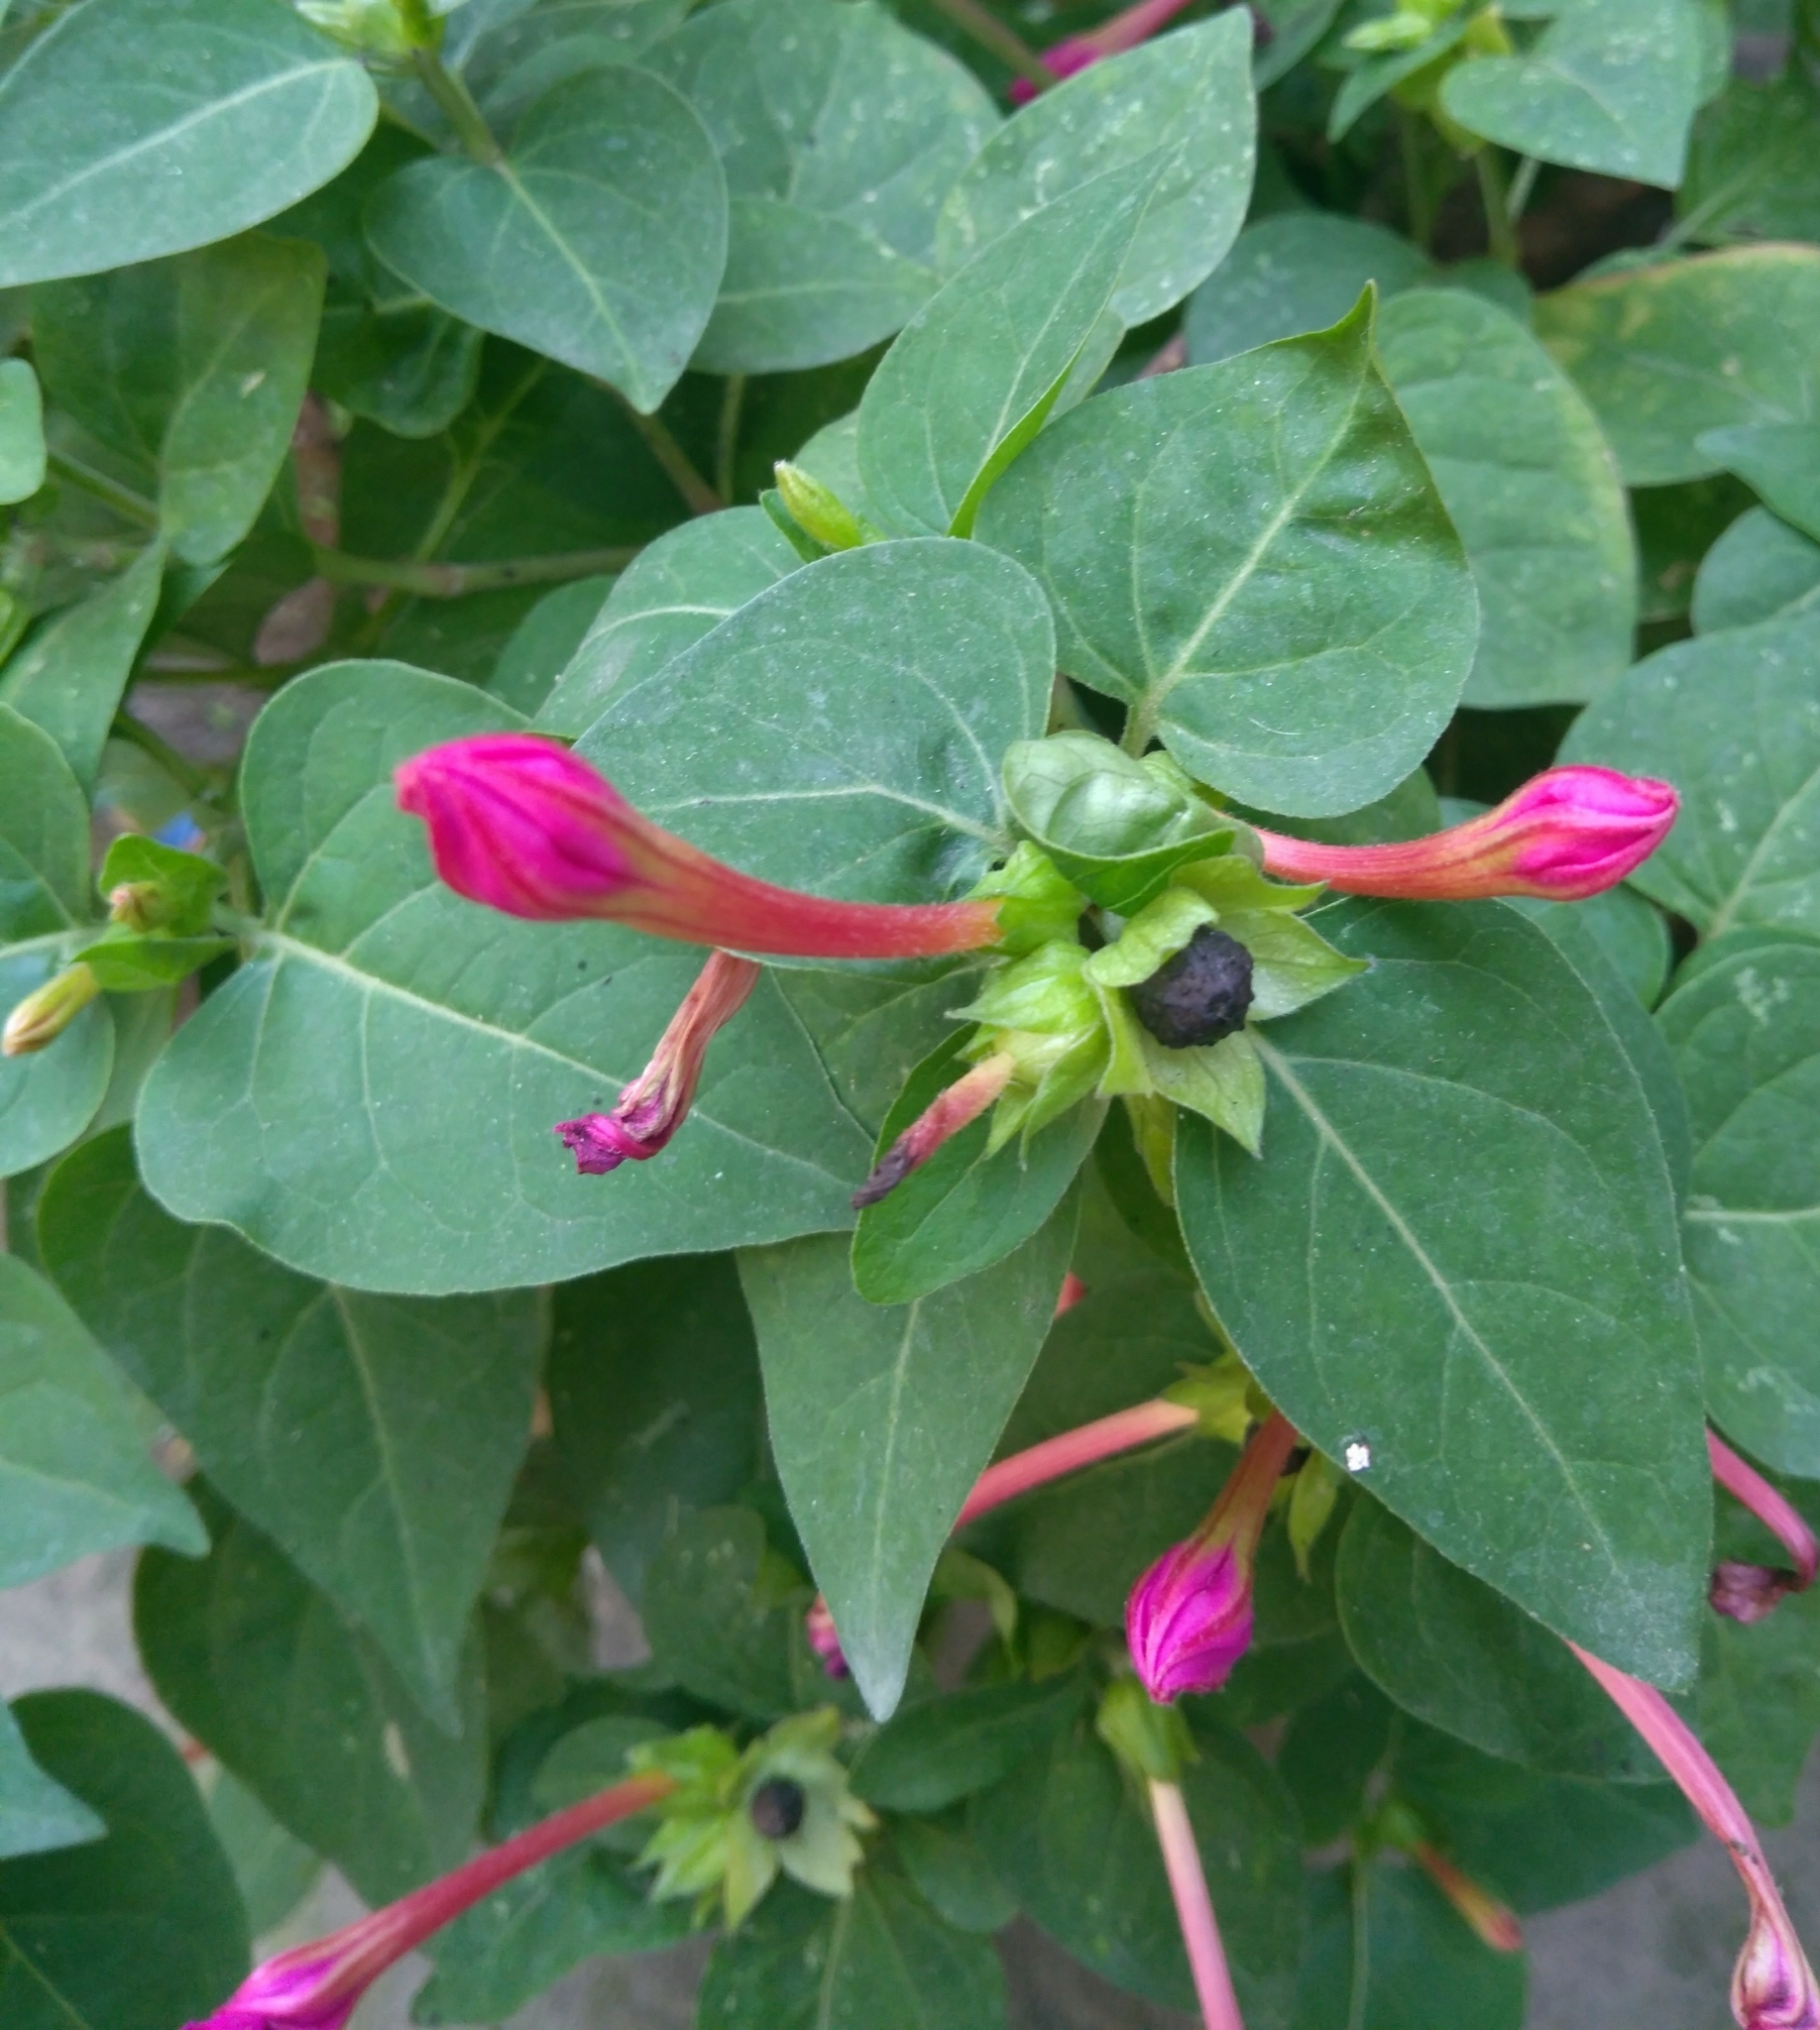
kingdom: Plantae
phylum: Tracheophyta
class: Magnoliopsida
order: Caryophyllales
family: Nyctaginaceae
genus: Mirabilis
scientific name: Mirabilis jalapa
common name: Marvel-of-peru
